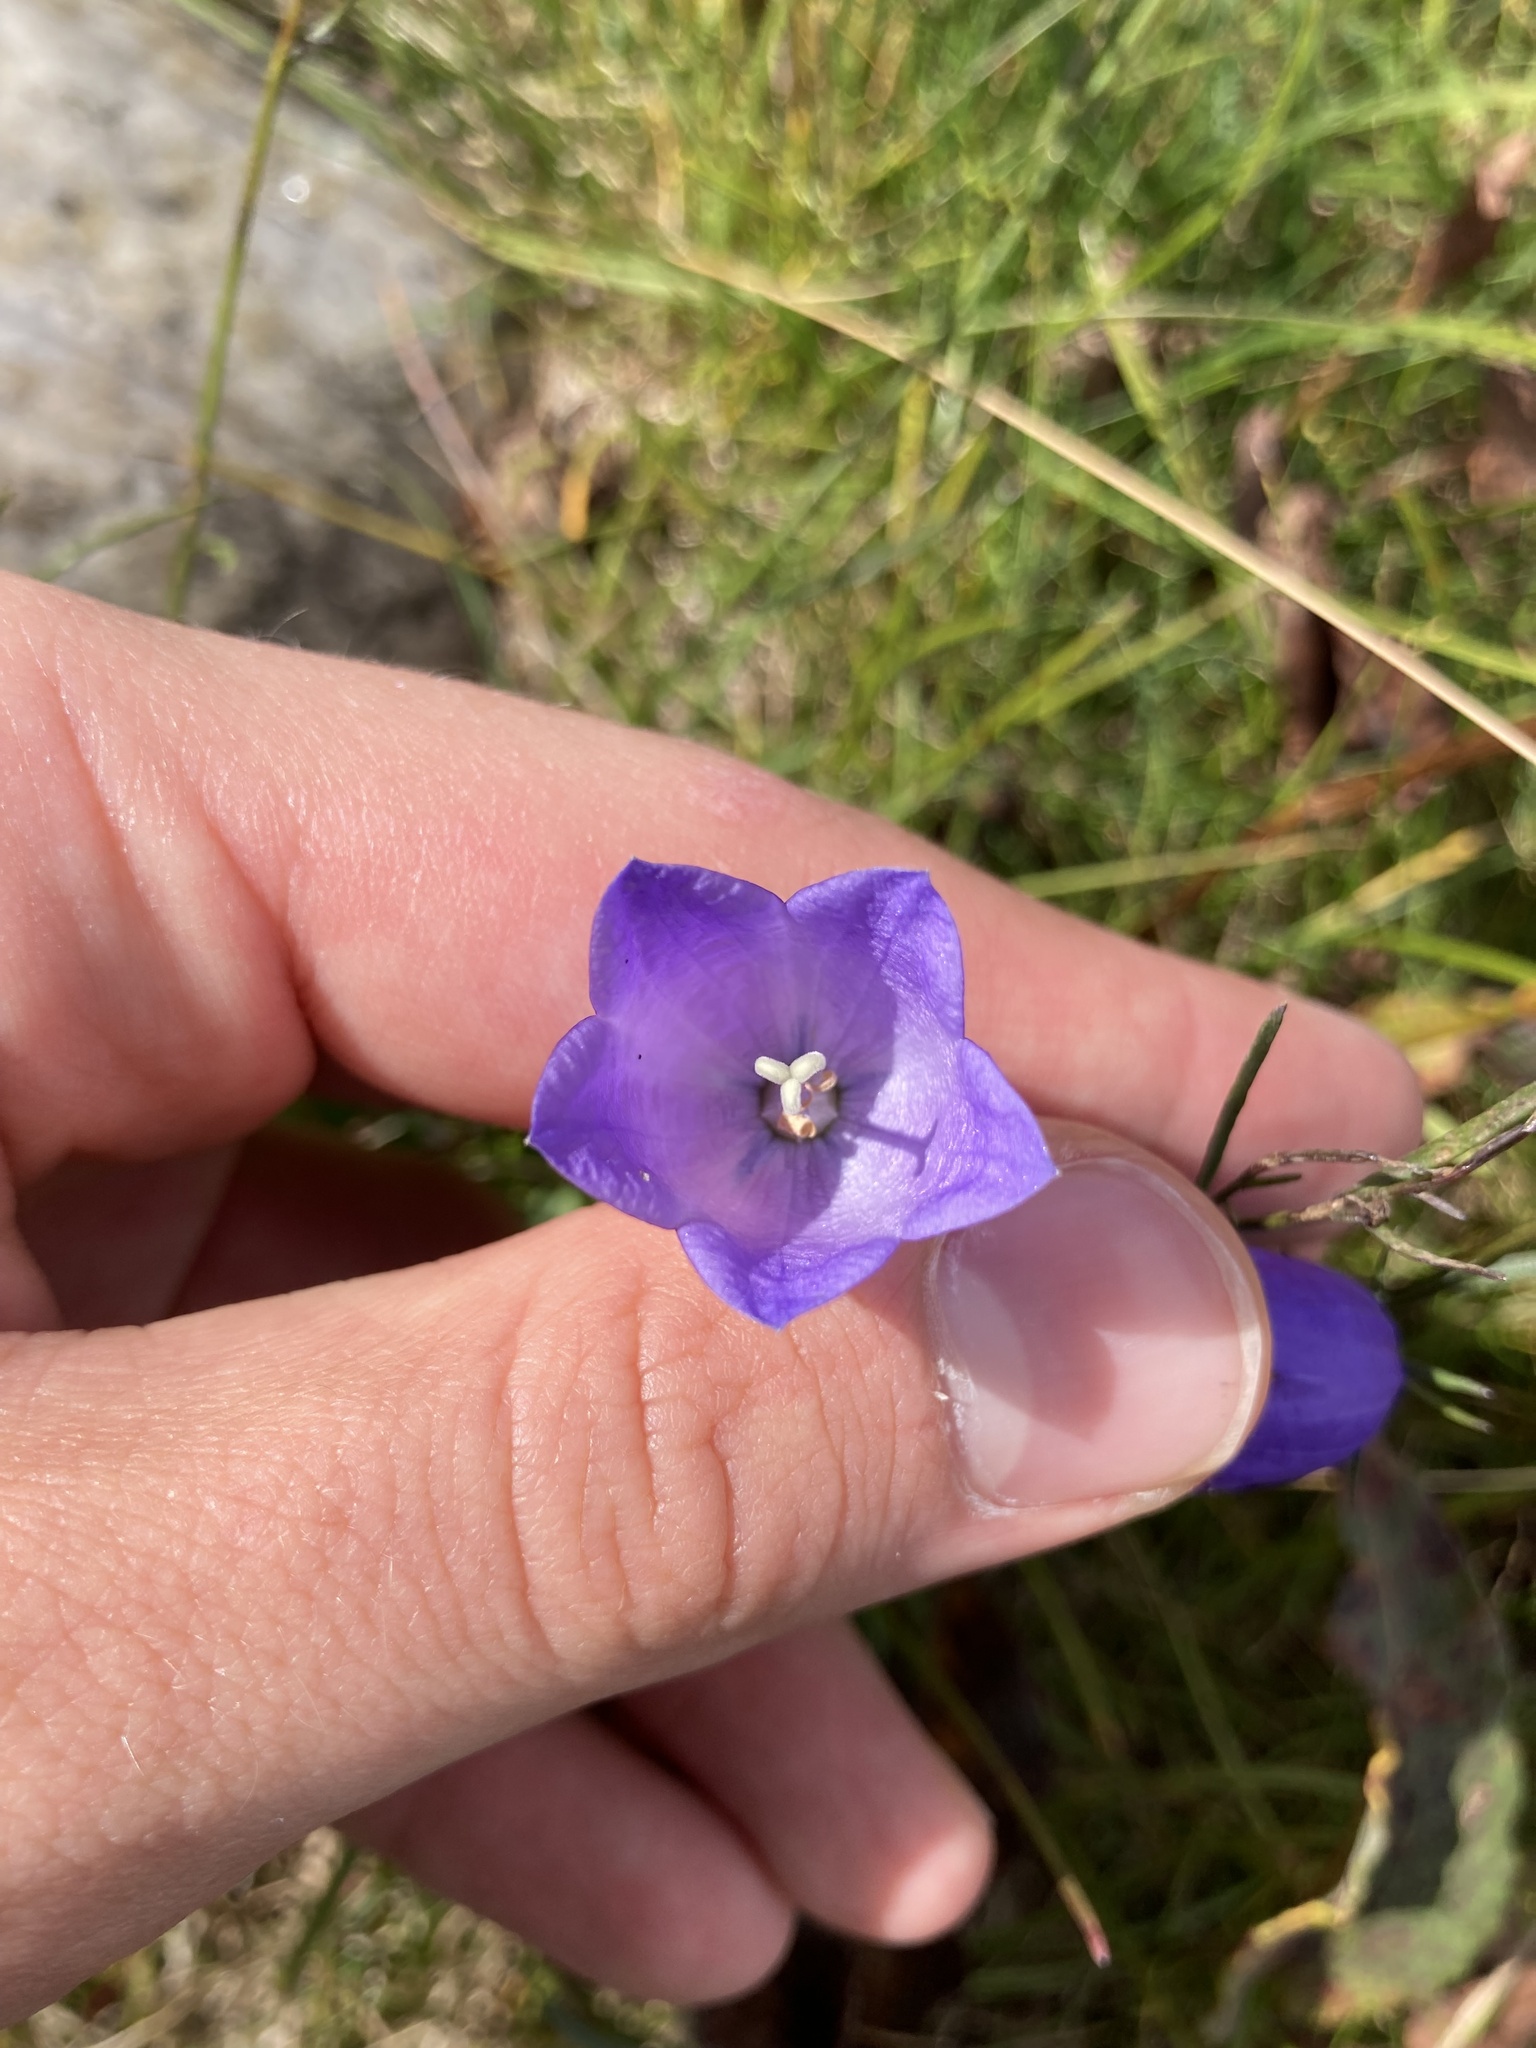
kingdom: Plantae
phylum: Tracheophyta
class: Magnoliopsida
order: Asterales
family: Campanulaceae
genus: Campanula
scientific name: Campanula rotundifolia
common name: Harebell
